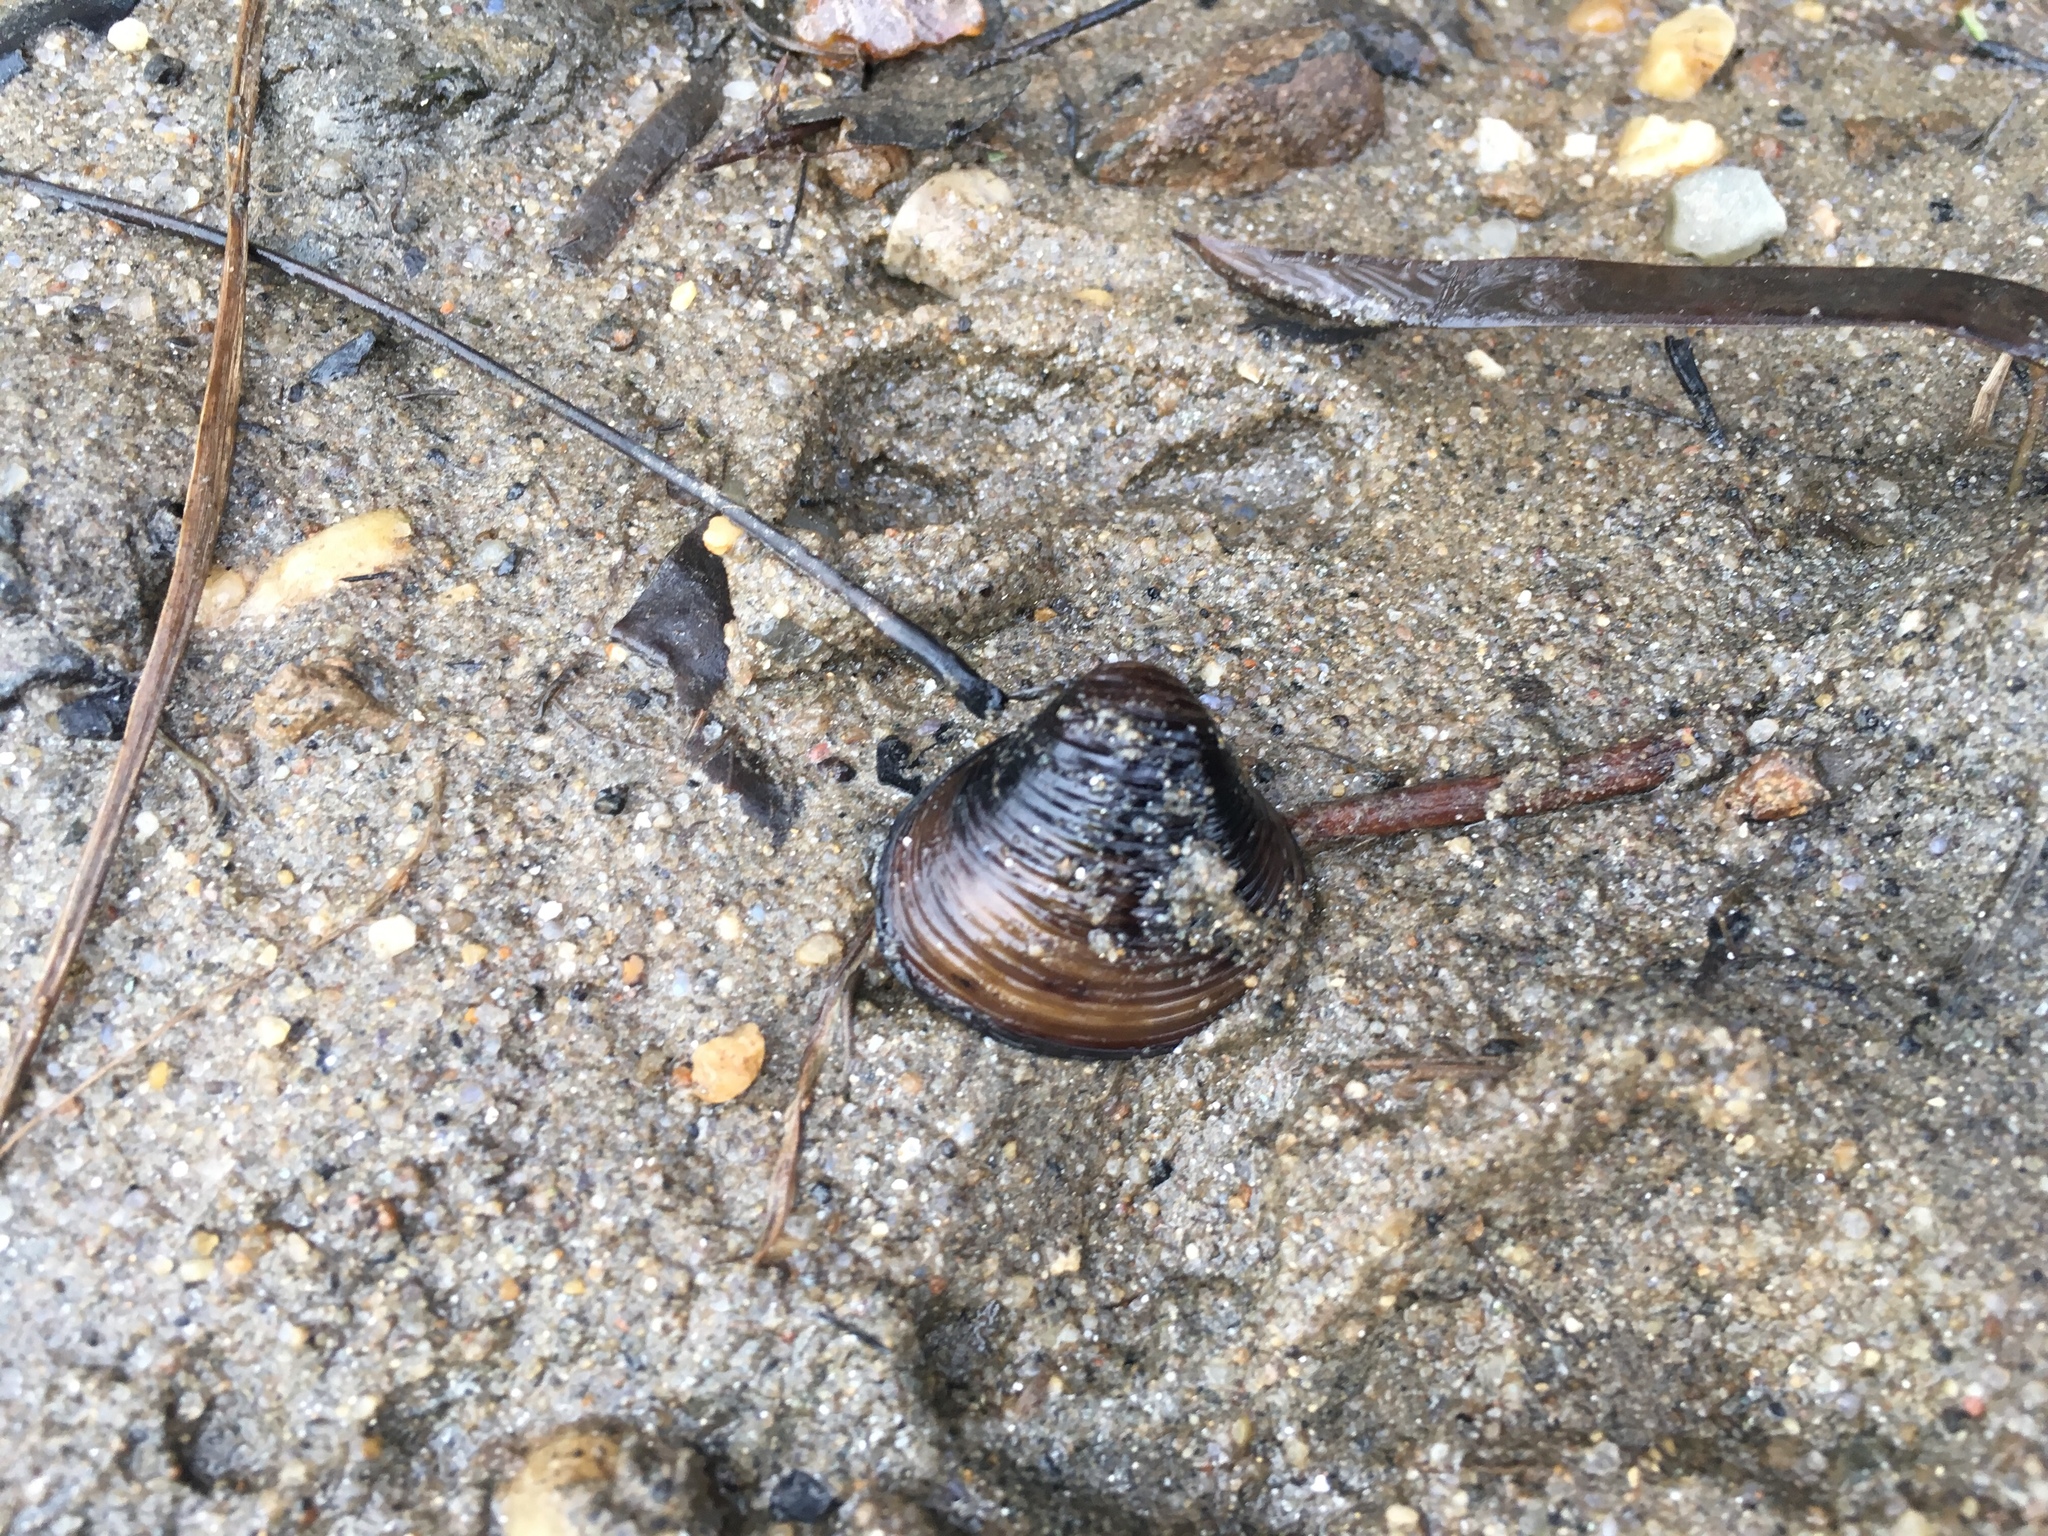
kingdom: Animalia
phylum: Mollusca
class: Bivalvia
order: Venerida
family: Cyrenidae
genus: Corbicula
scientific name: Corbicula fluminea
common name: Asian clam
